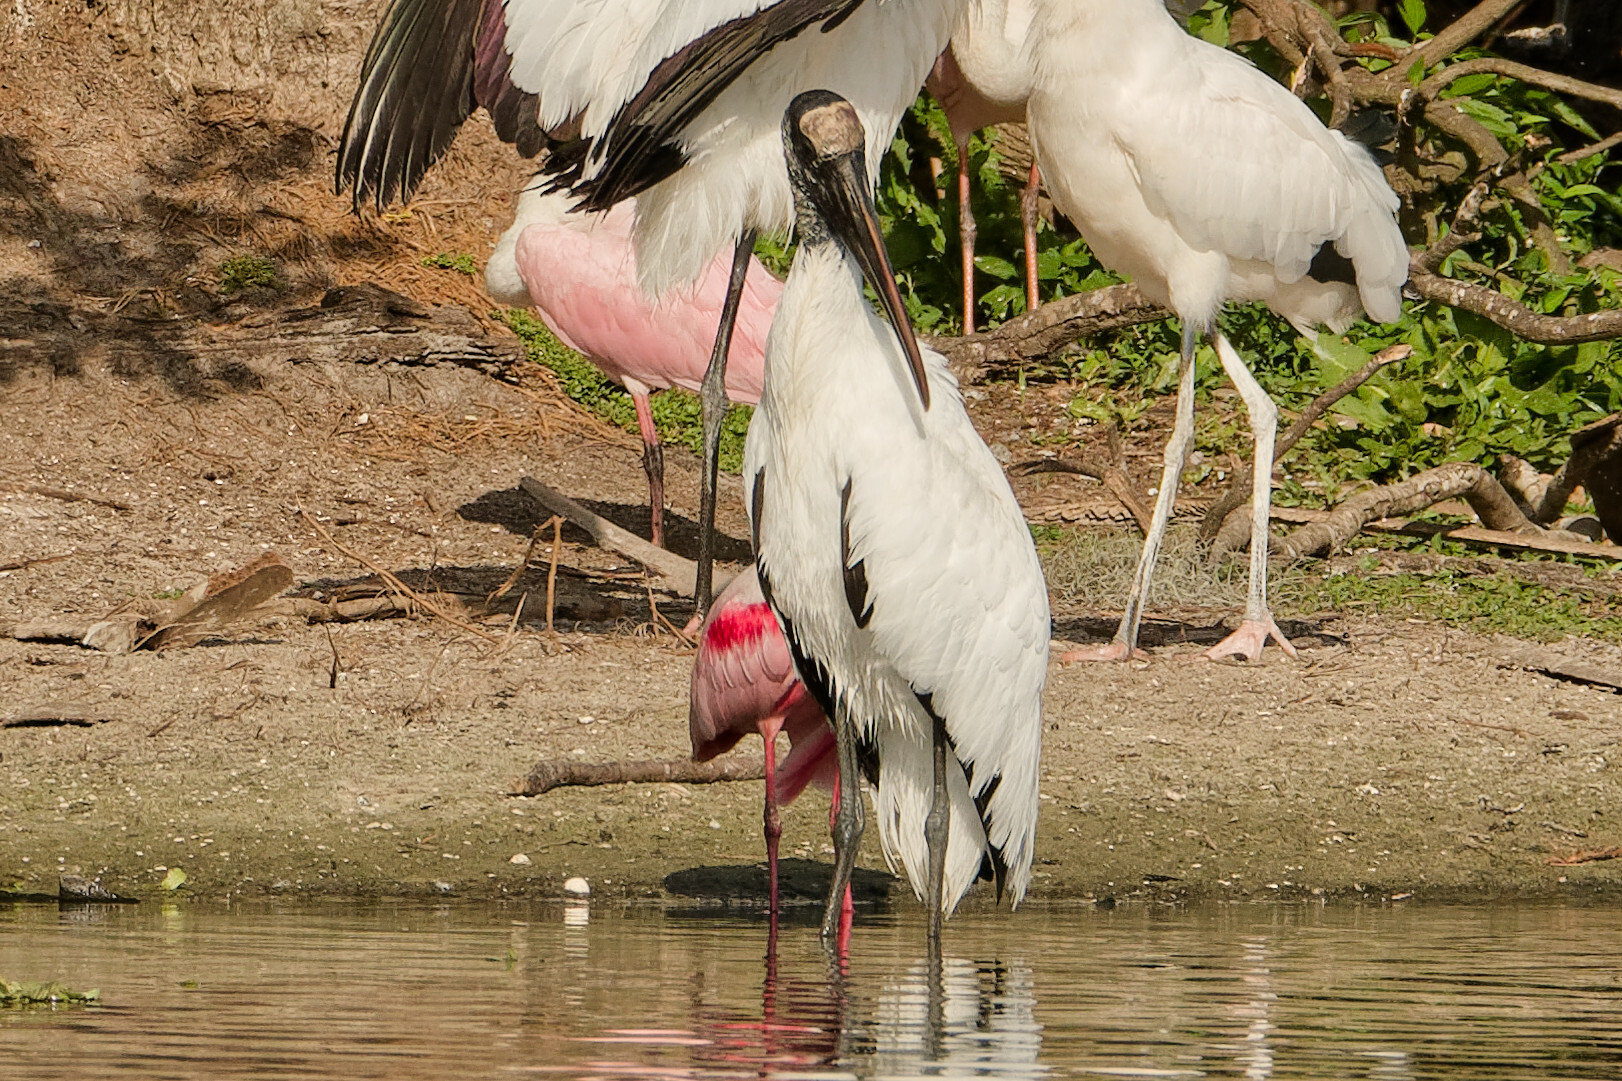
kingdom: Animalia
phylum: Chordata
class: Aves
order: Ciconiiformes
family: Ciconiidae
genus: Mycteria
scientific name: Mycteria americana
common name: Wood stork
